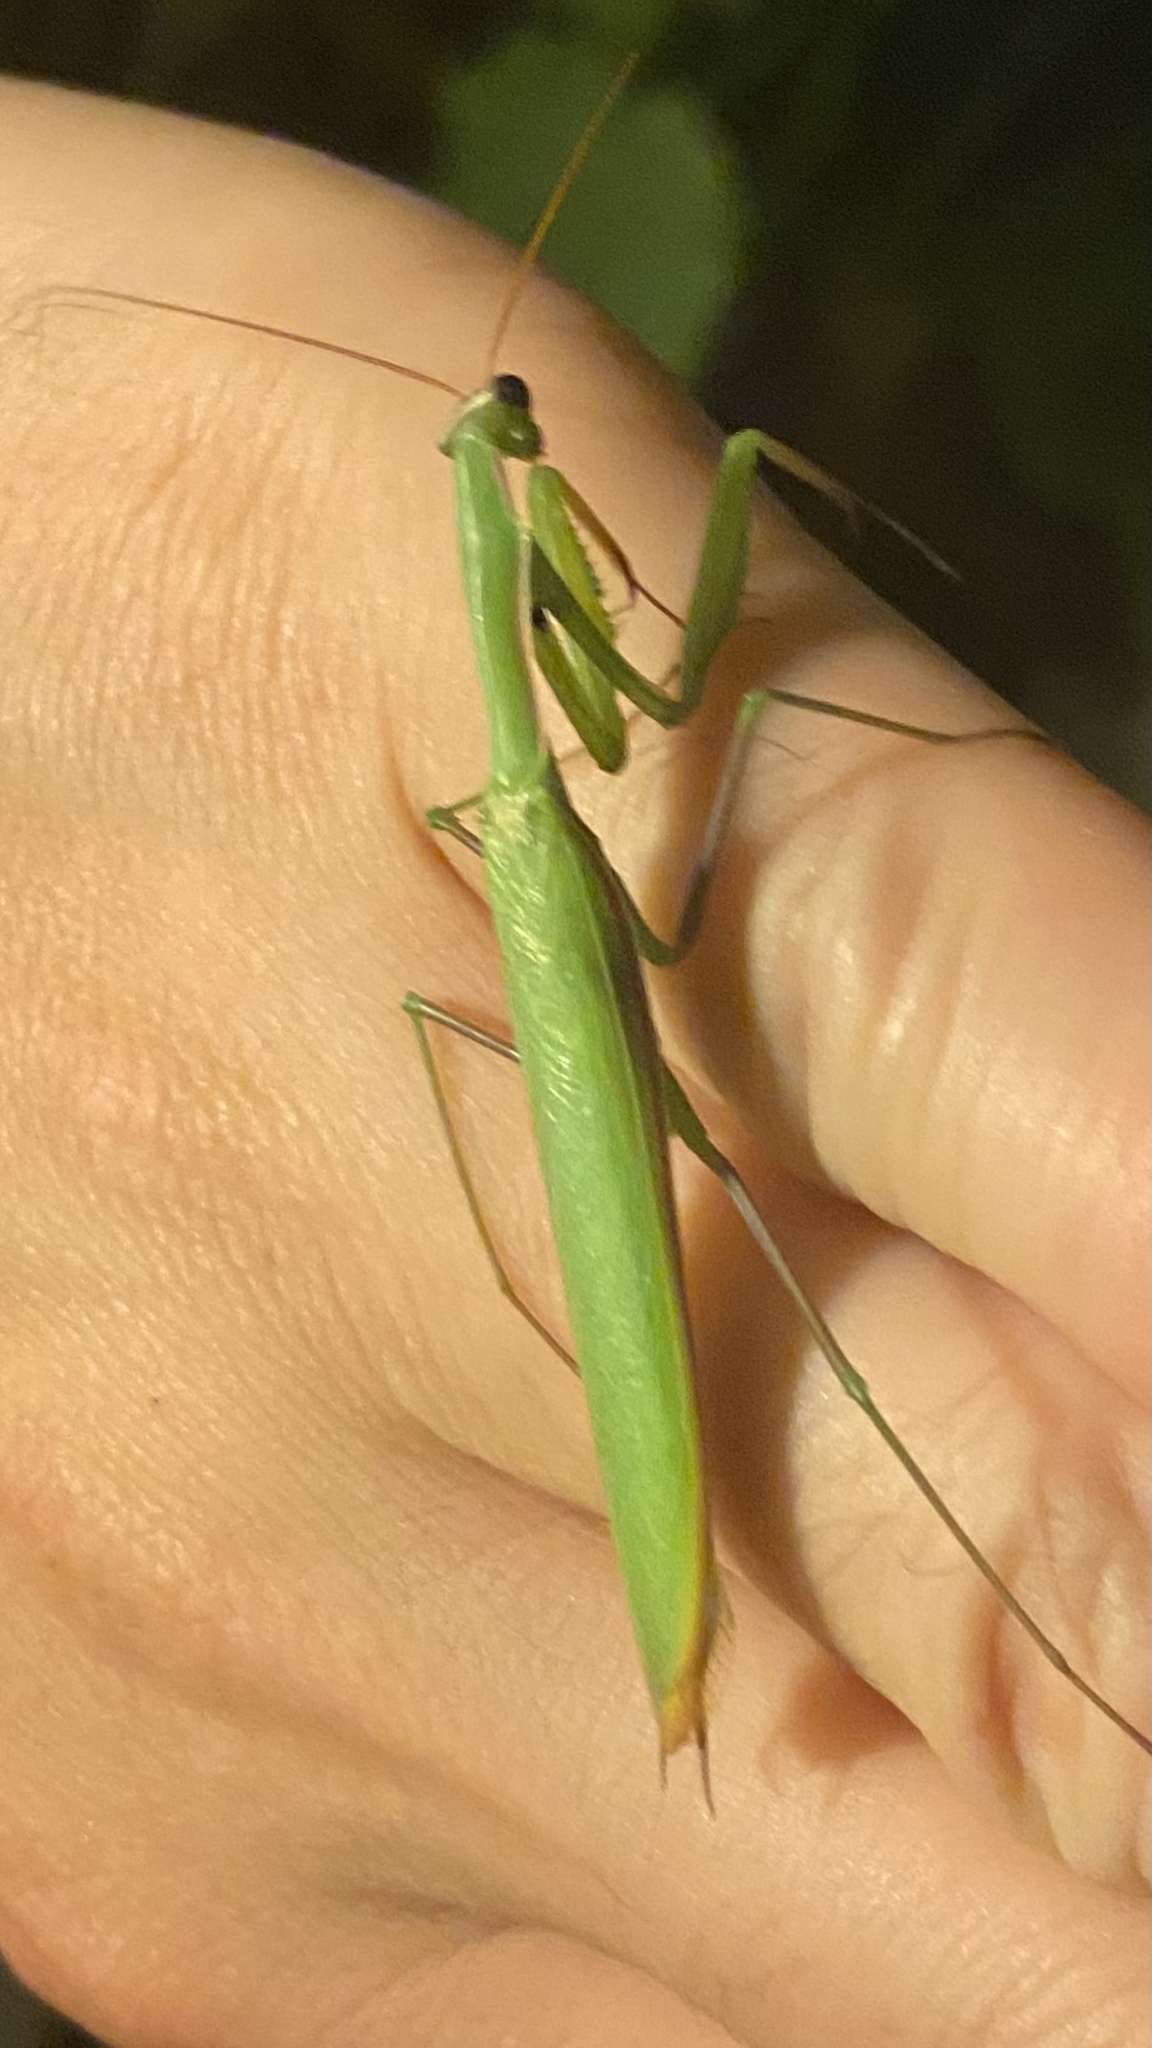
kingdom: Animalia
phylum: Arthropoda
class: Insecta
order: Mantodea
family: Mantidae
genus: Mantis
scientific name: Mantis religiosa
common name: Praying mantis
